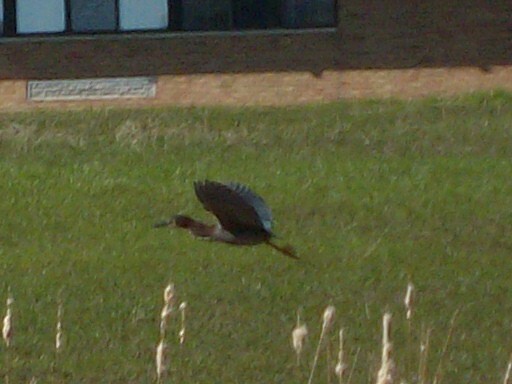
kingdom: Animalia
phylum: Chordata
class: Aves
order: Pelecaniformes
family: Ardeidae
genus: Butorides
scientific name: Butorides virescens
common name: Green heron
